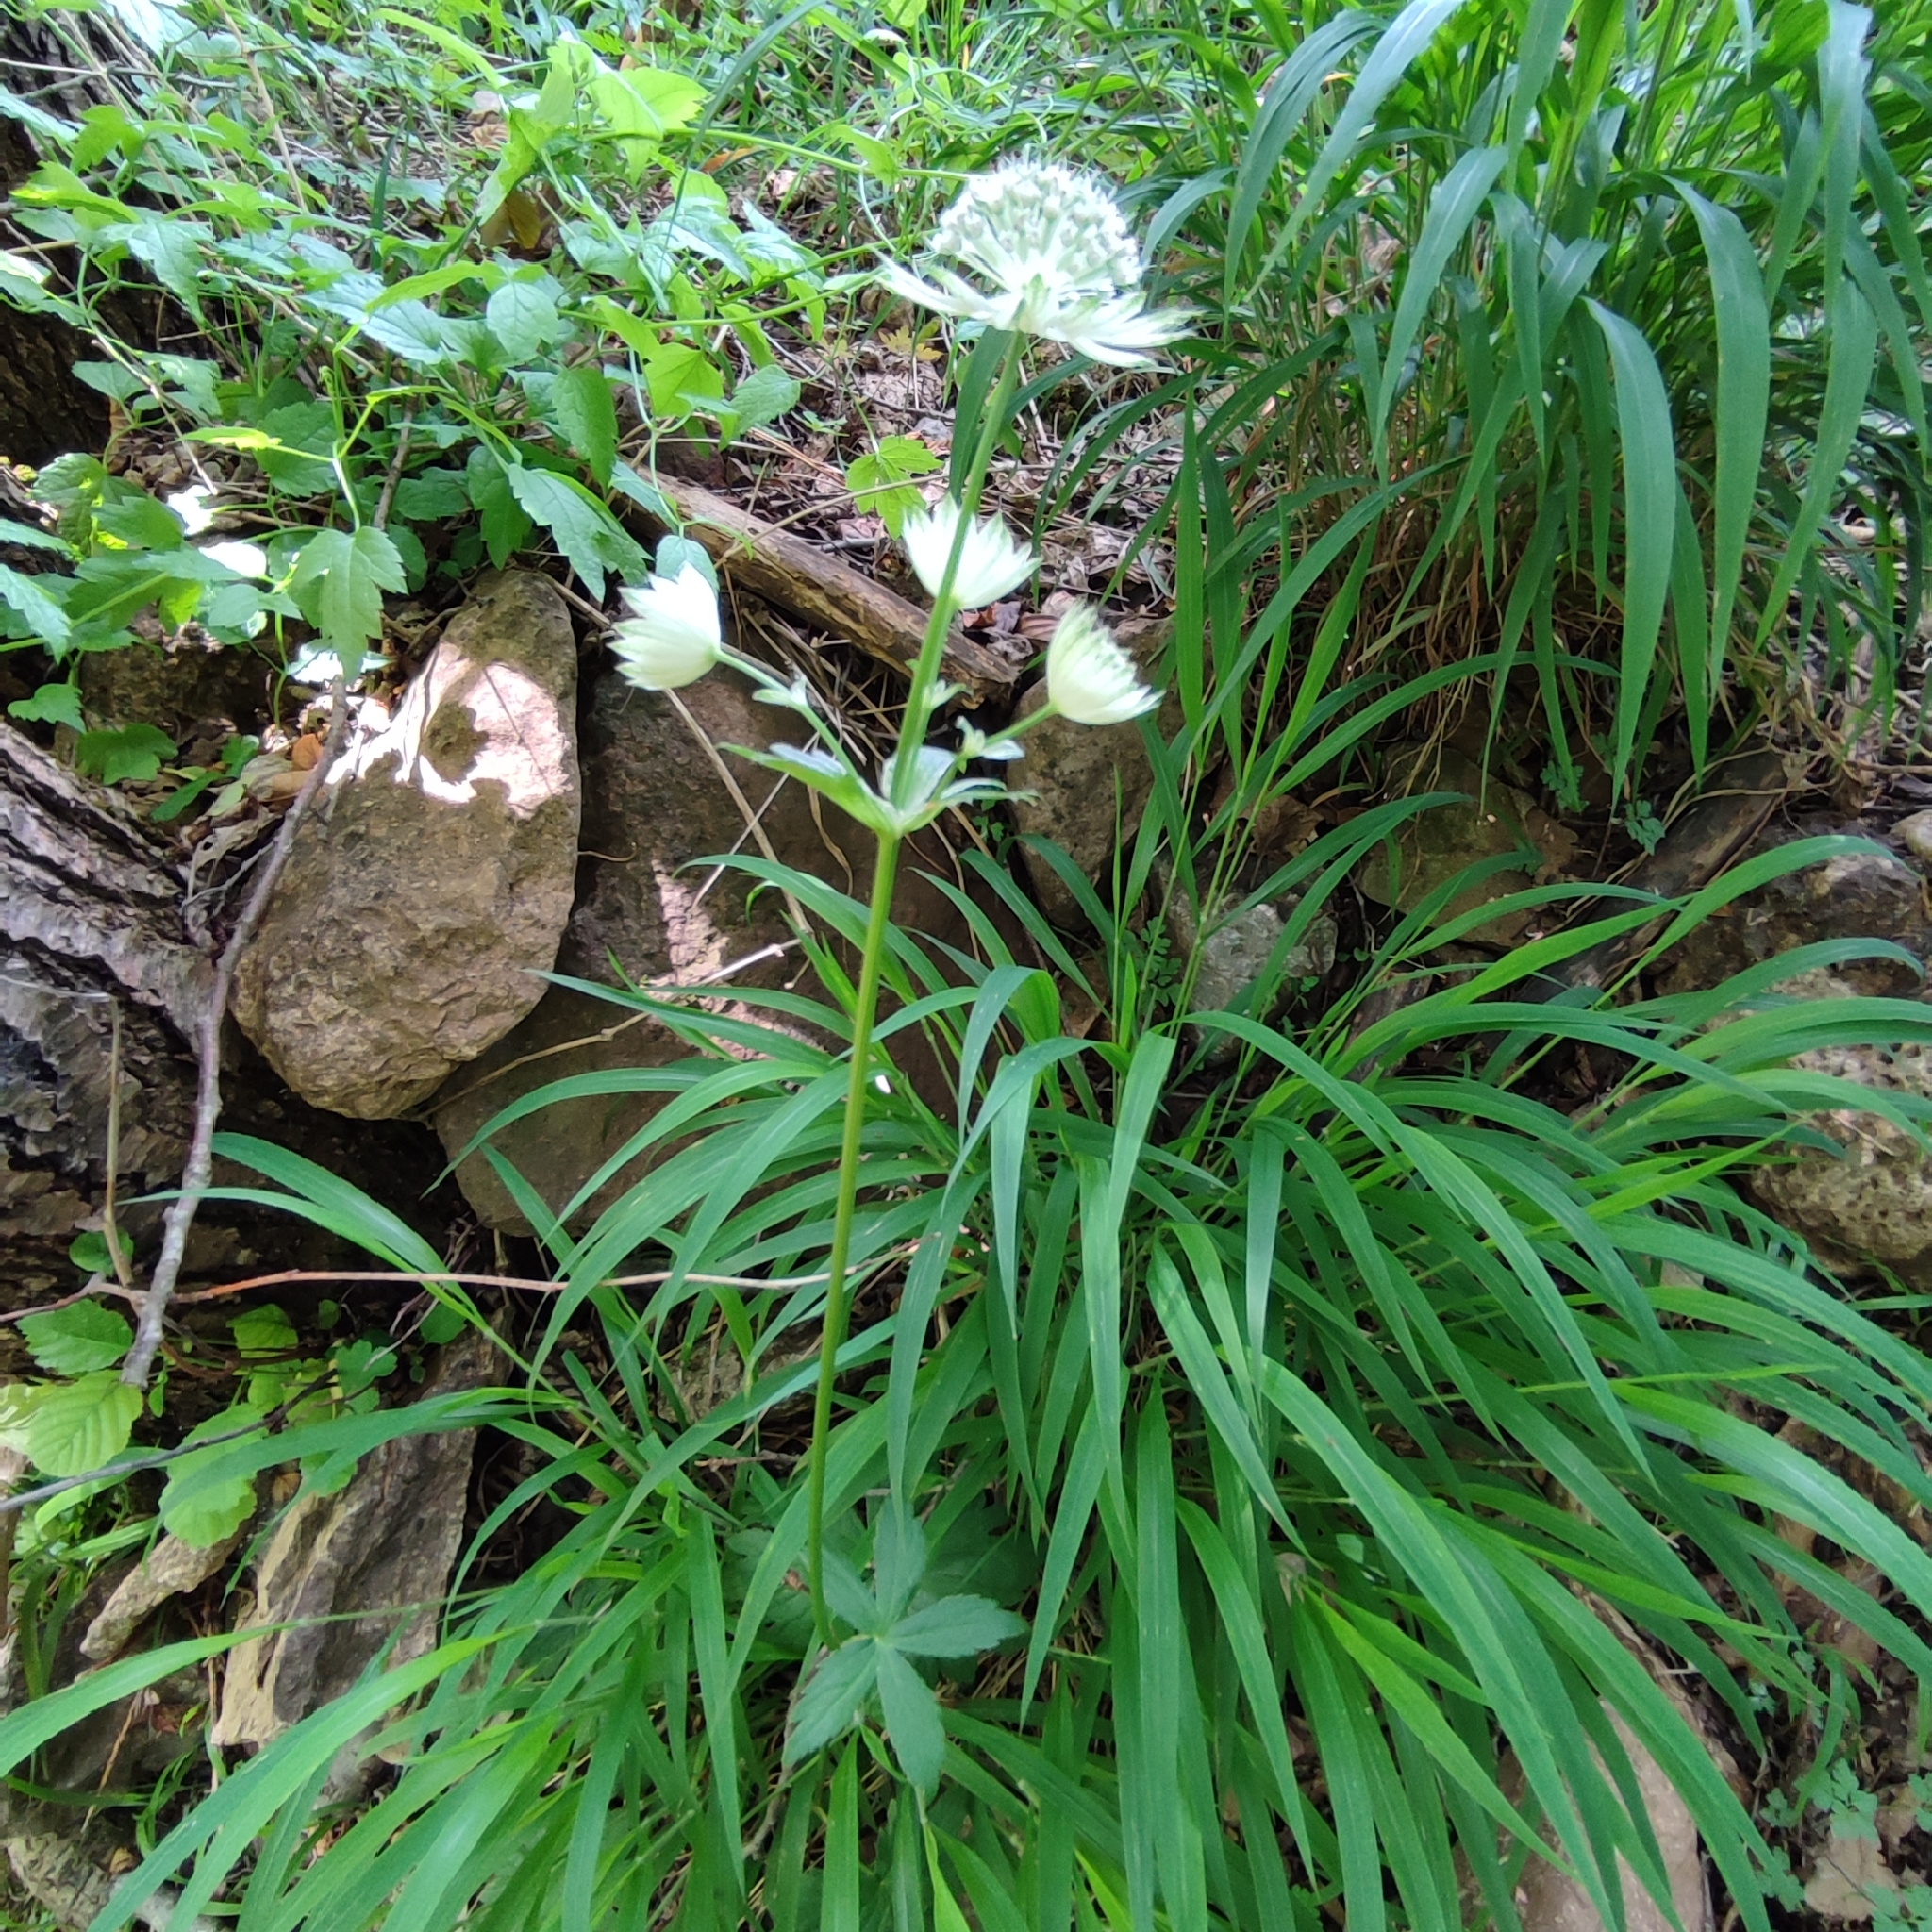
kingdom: Plantae
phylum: Tracheophyta
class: Magnoliopsida
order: Apiales
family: Apiaceae
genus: Astrantia
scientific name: Astrantia major
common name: Greater masterwort
